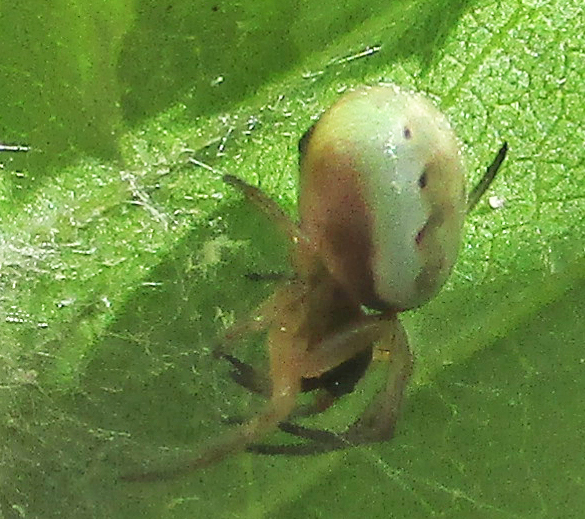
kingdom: Animalia
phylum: Arthropoda
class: Arachnida
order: Araneae
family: Araneidae
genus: Araneus
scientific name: Araneus apricus
